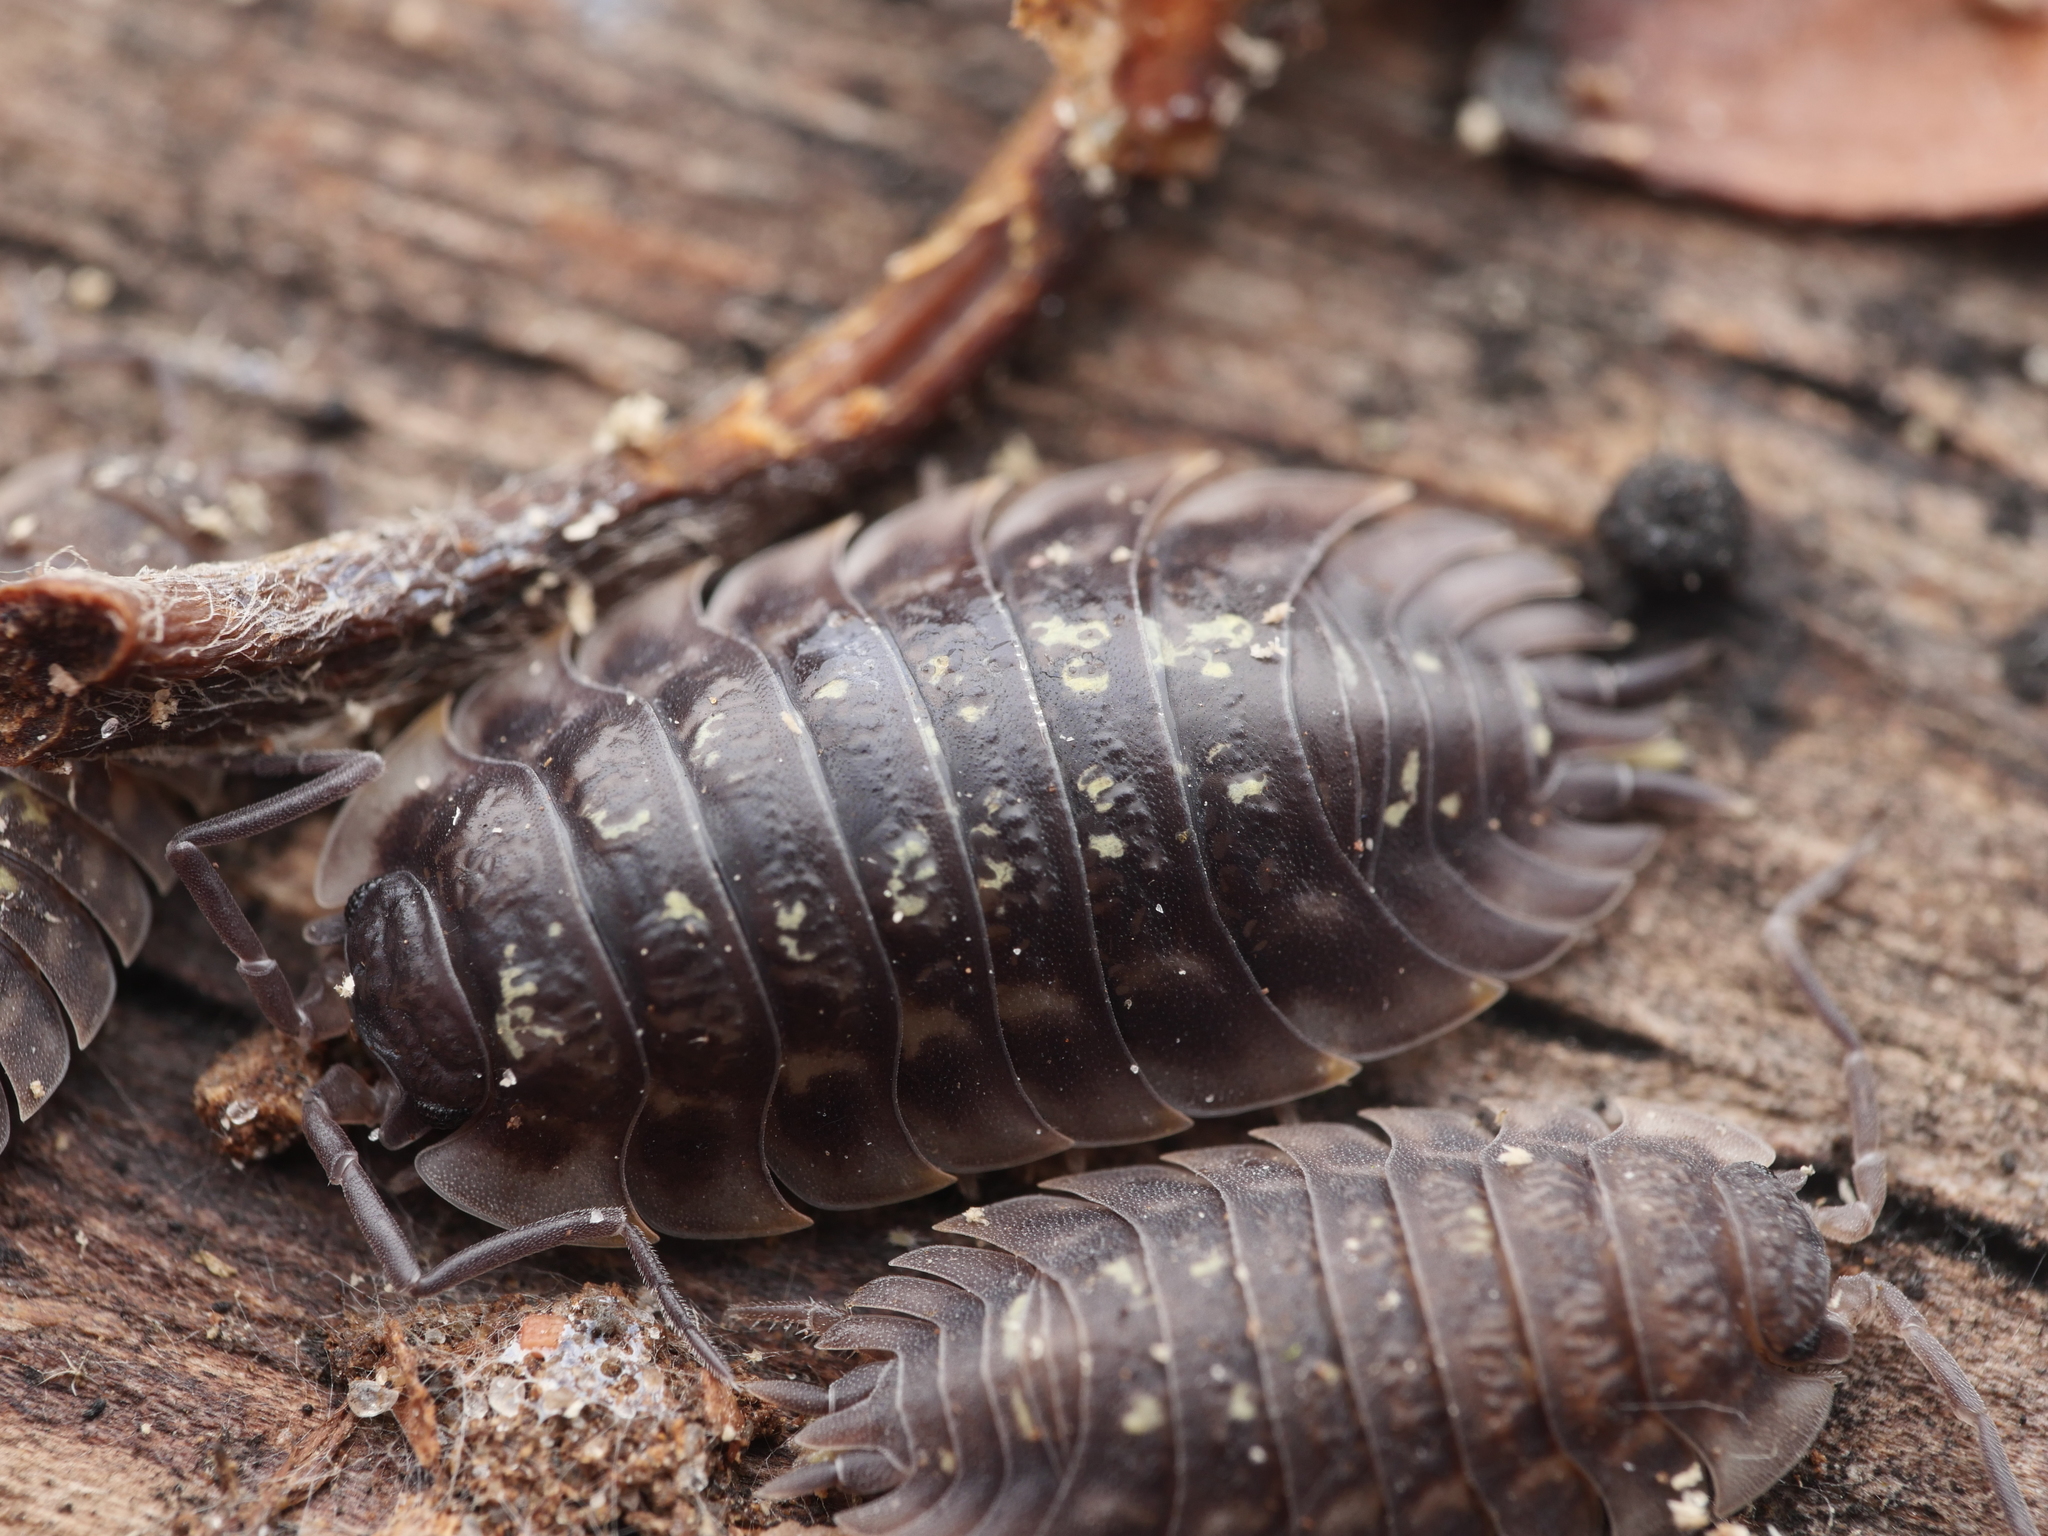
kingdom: Animalia
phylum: Arthropoda
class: Malacostraca
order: Isopoda
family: Oniscidae
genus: Oniscus
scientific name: Oniscus asellus
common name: Common shiny woodlouse
